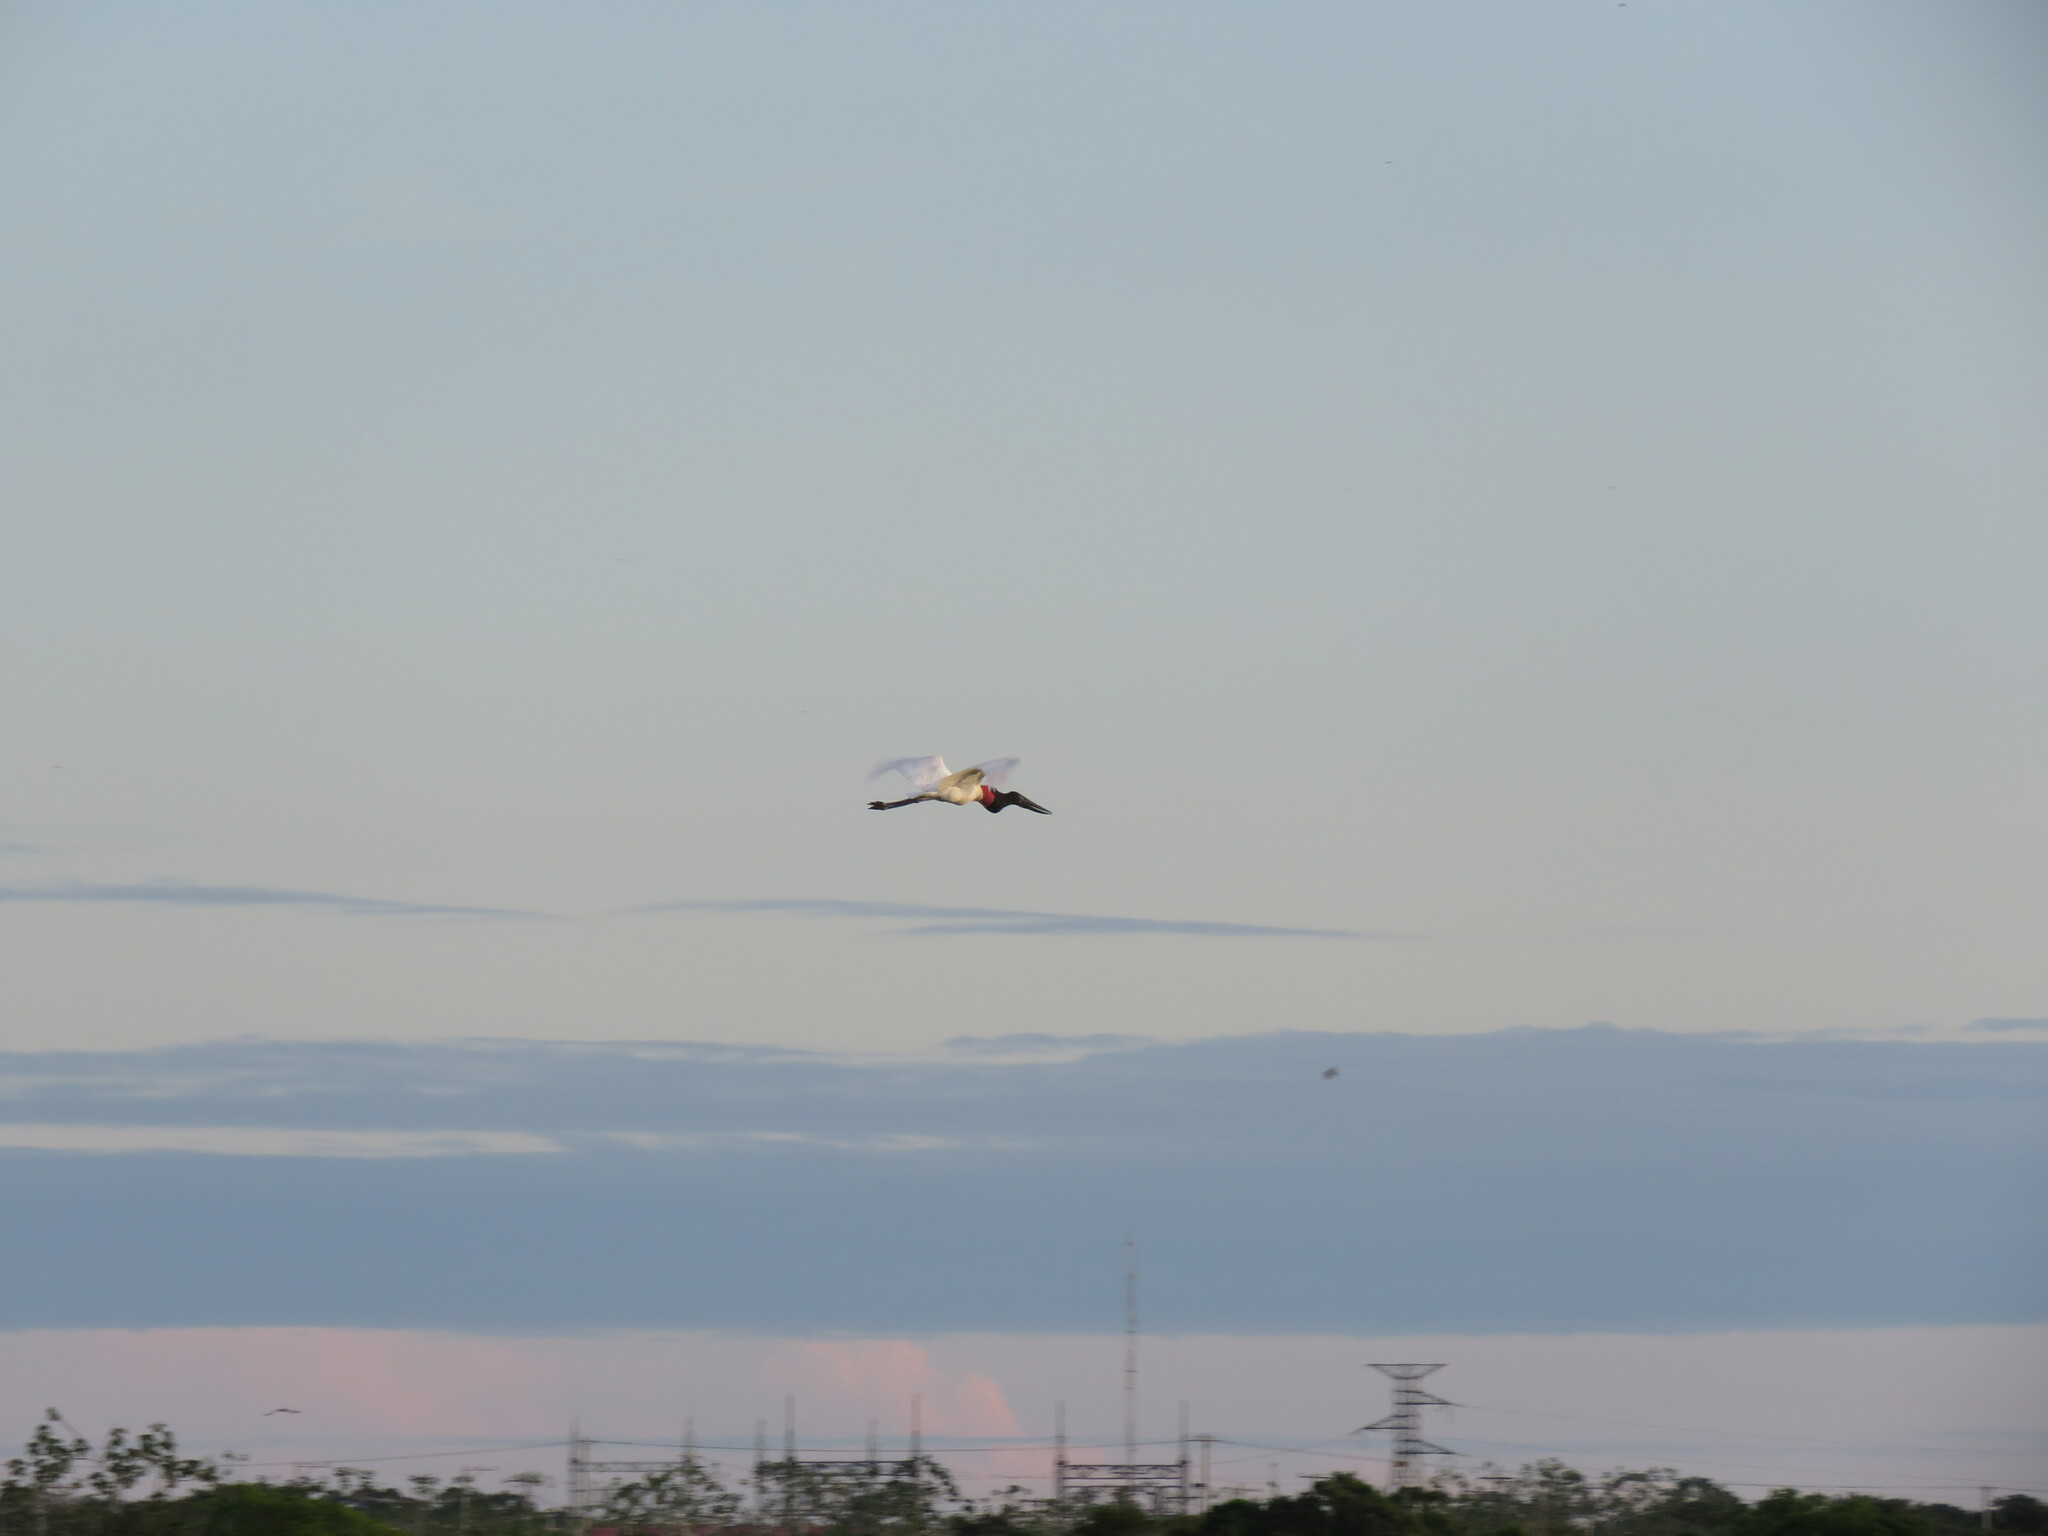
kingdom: Animalia
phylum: Chordata
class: Aves
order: Ciconiiformes
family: Ciconiidae
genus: Jabiru
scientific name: Jabiru mycteria
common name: Jabiru
